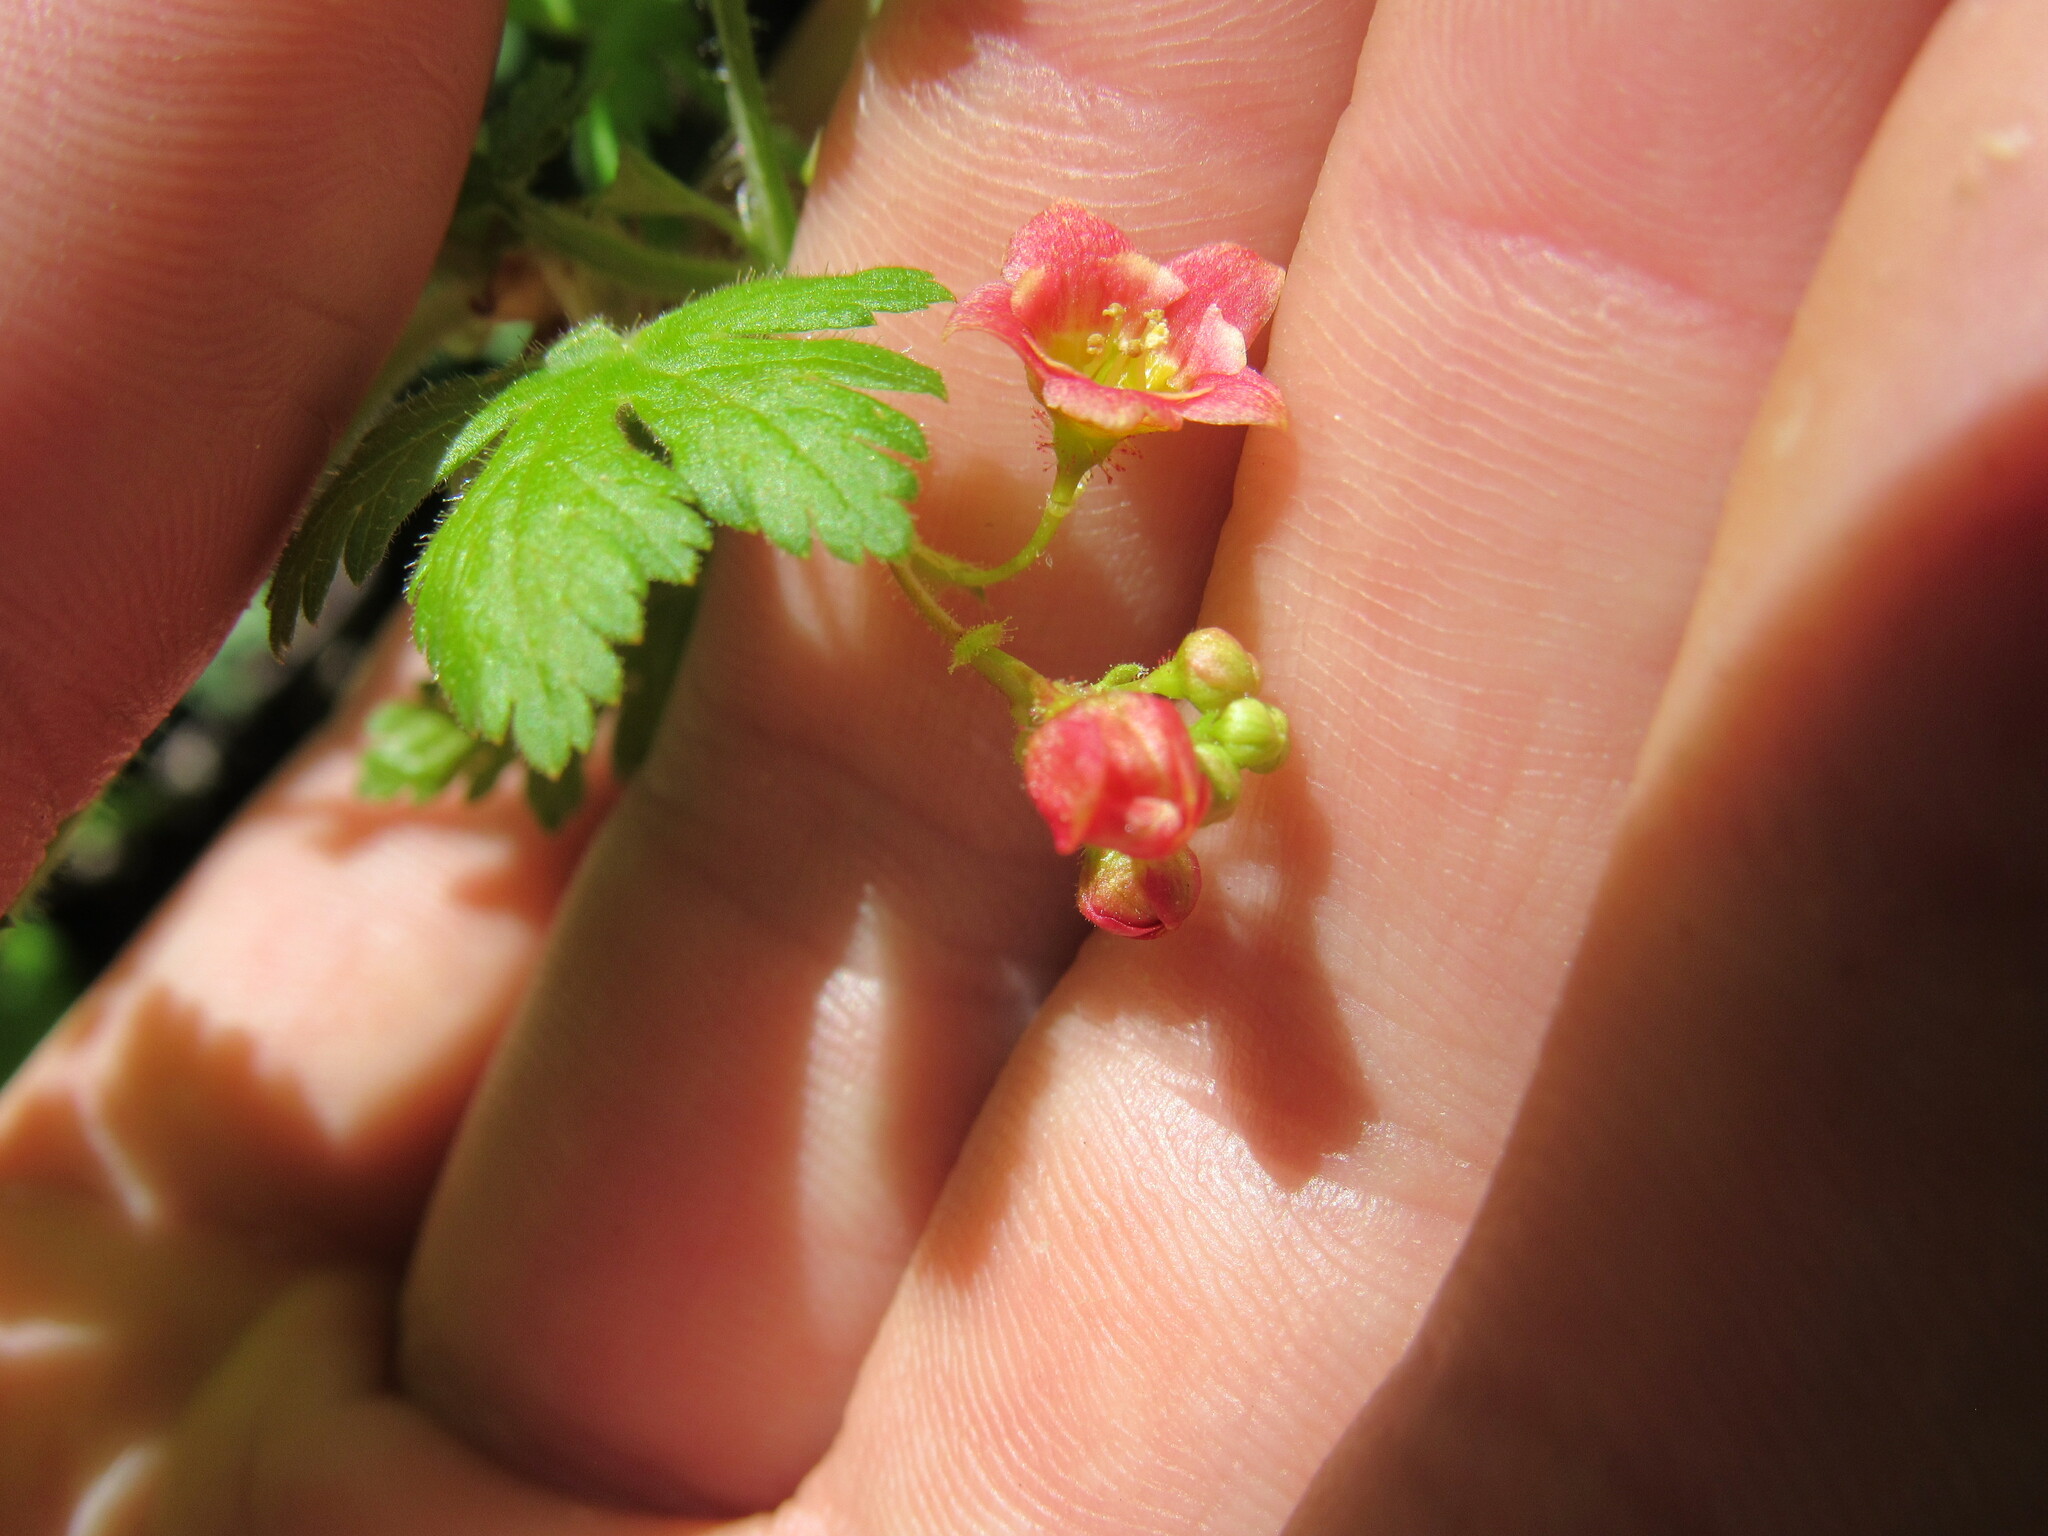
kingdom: Plantae
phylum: Tracheophyta
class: Magnoliopsida
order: Saxifragales
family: Grossulariaceae
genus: Ribes
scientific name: Ribes montigenum
